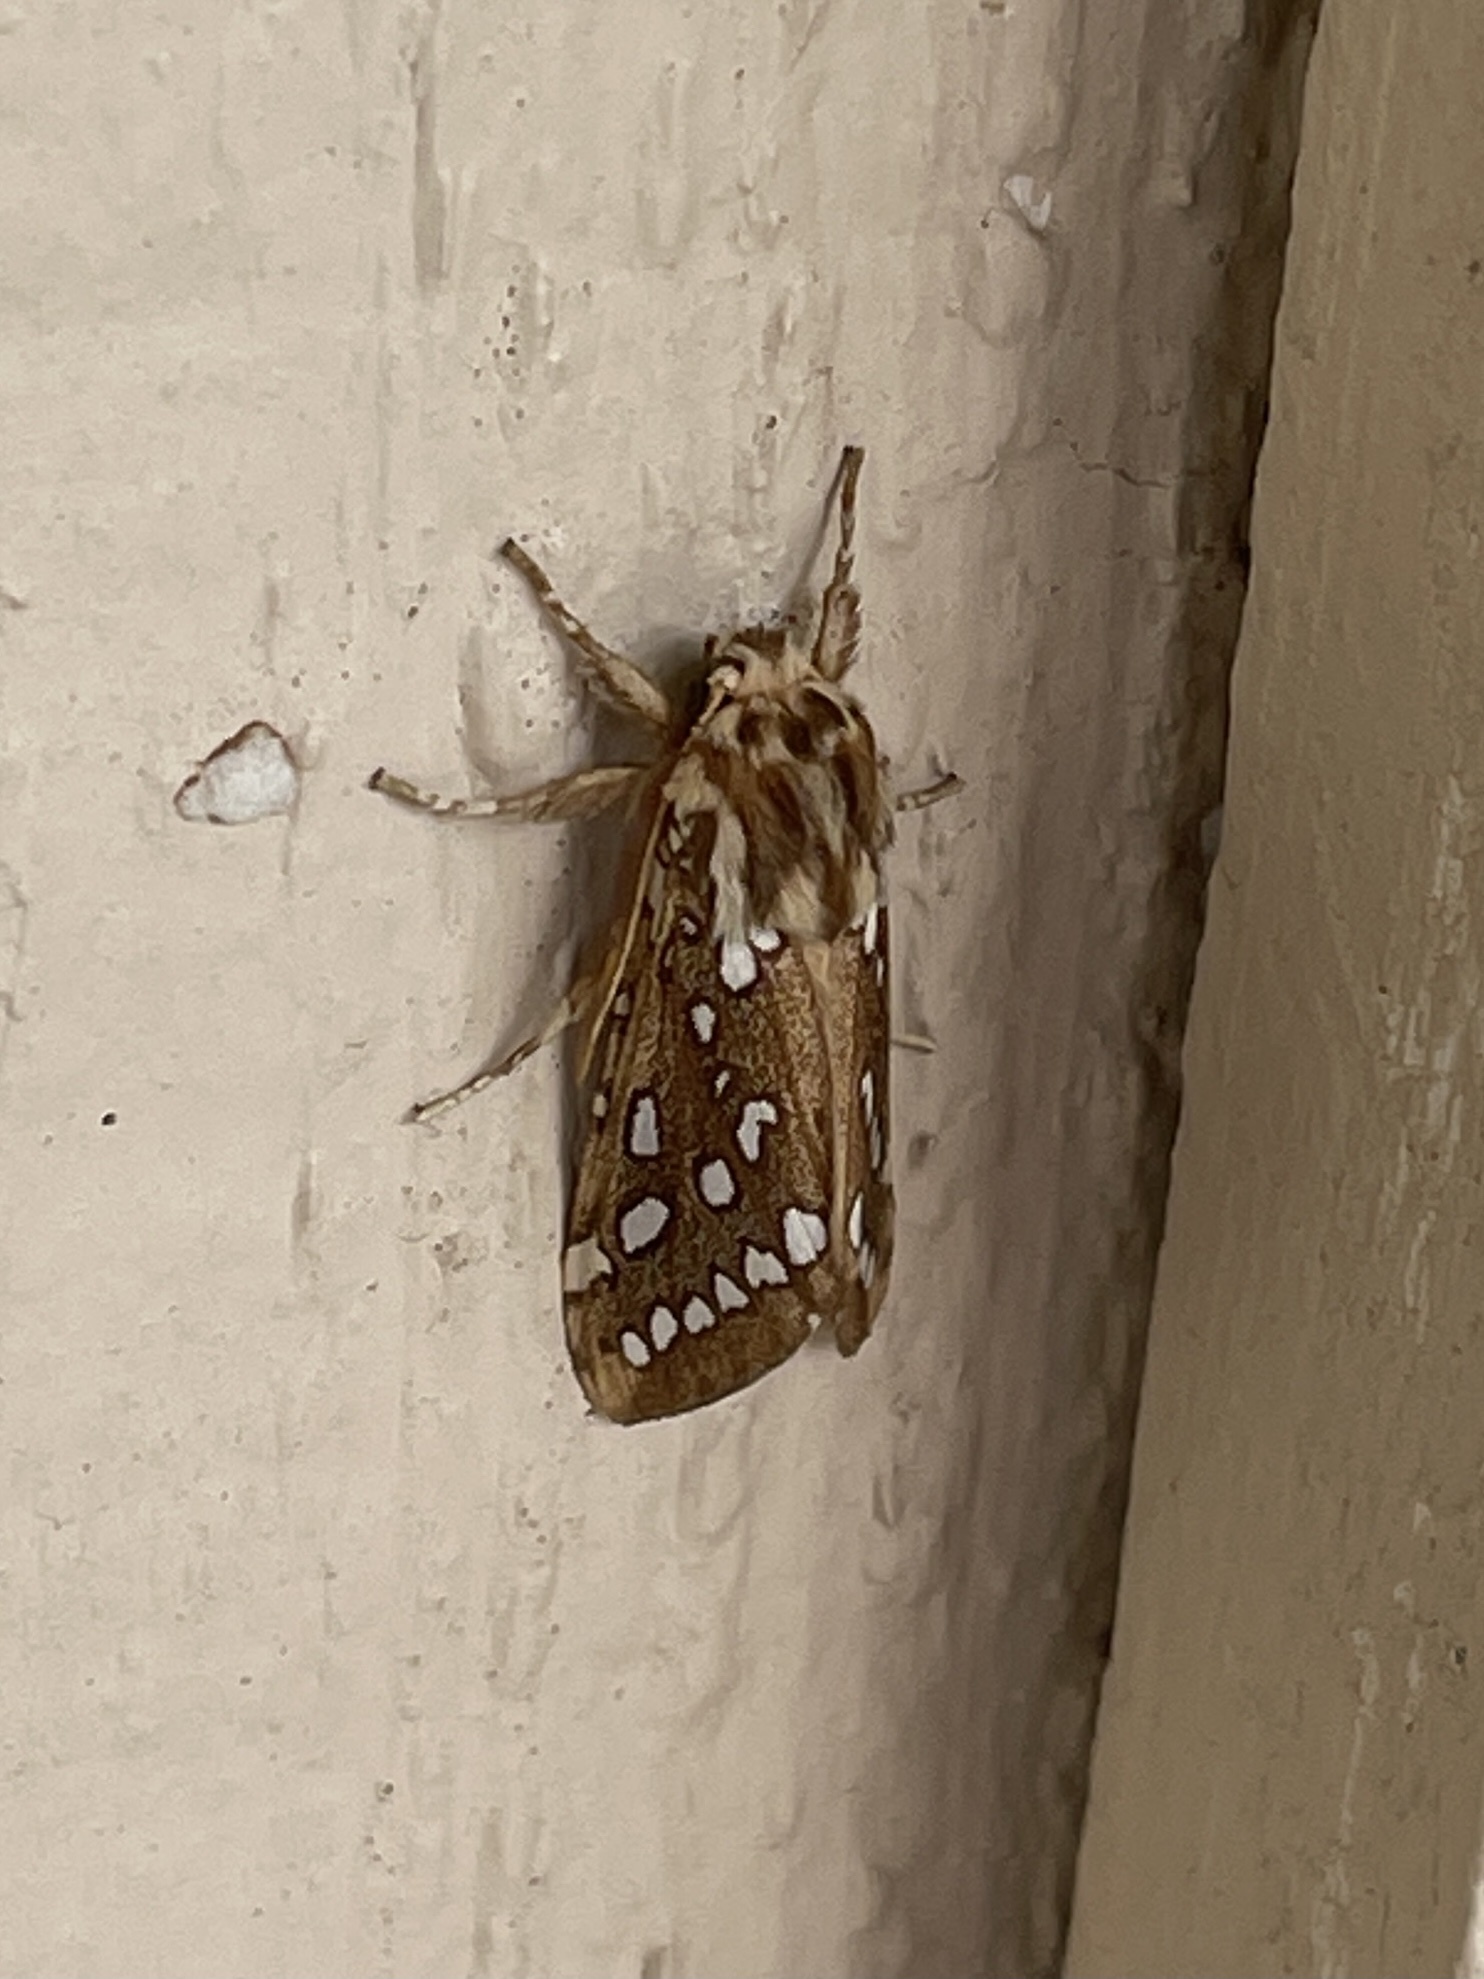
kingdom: Animalia
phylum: Arthropoda
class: Insecta
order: Lepidoptera
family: Erebidae
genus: Lophocampa
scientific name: Lophocampa argentata
